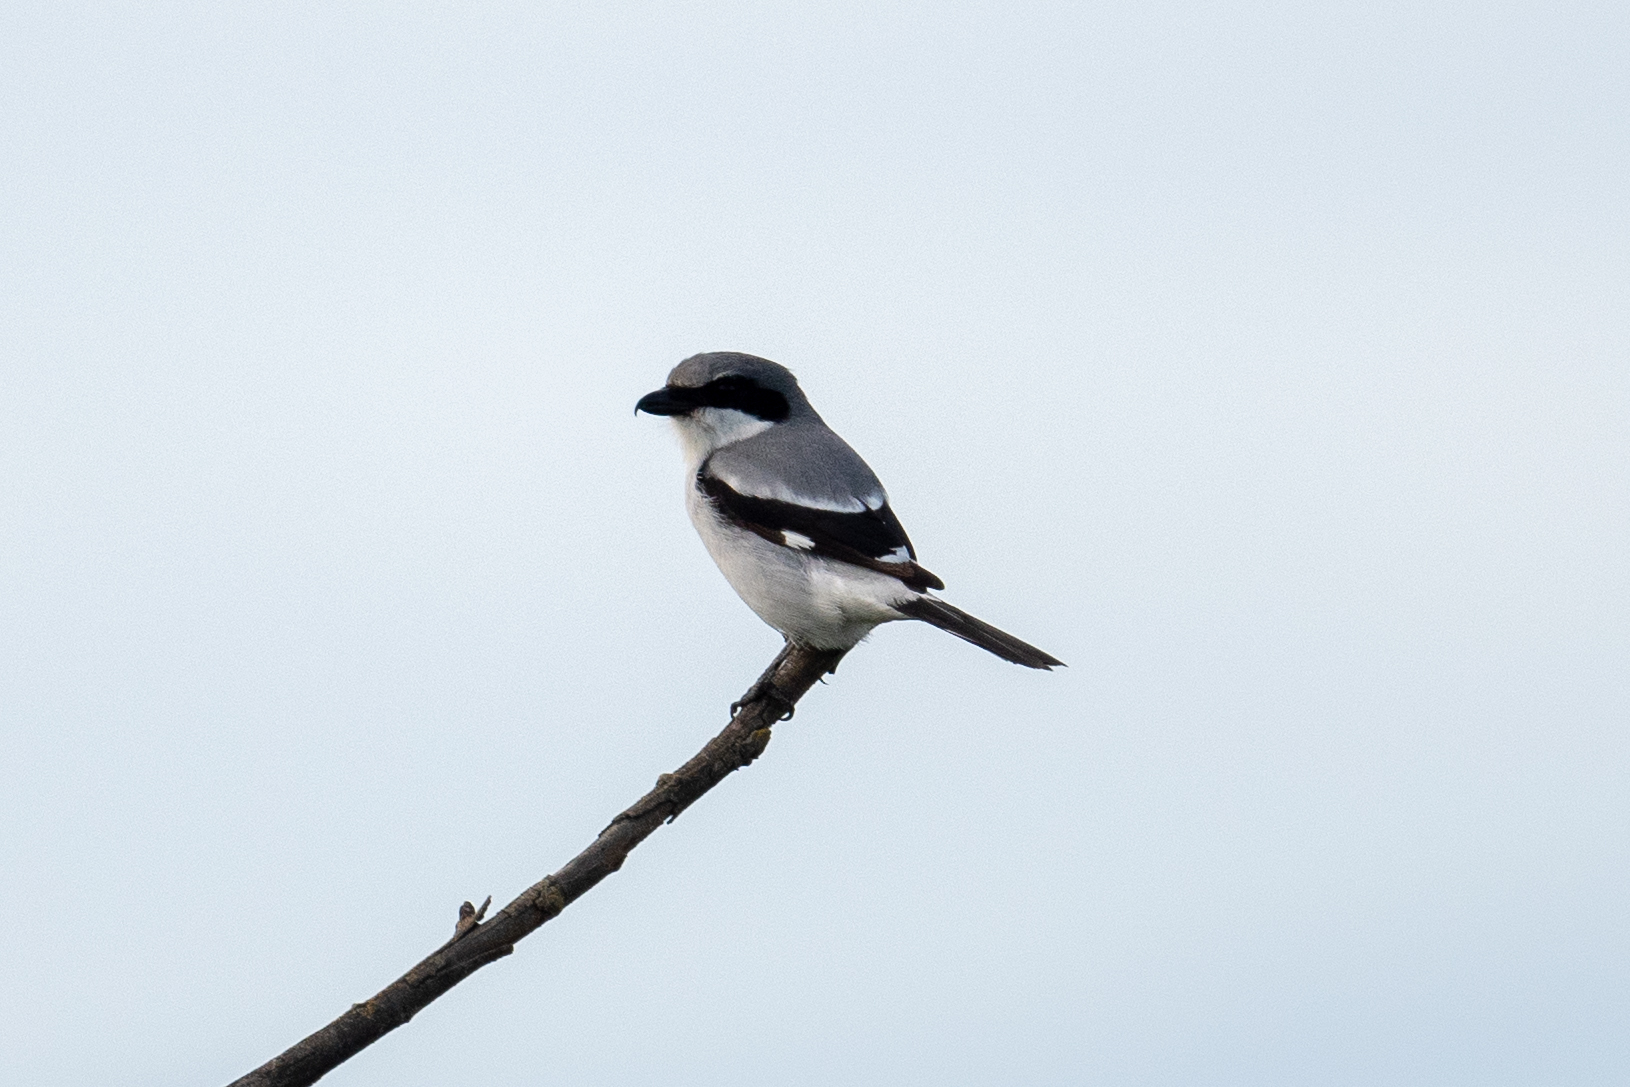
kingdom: Animalia
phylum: Chordata
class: Aves
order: Passeriformes
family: Laniidae
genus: Lanius
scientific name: Lanius ludovicianus
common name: Loggerhead shrike
